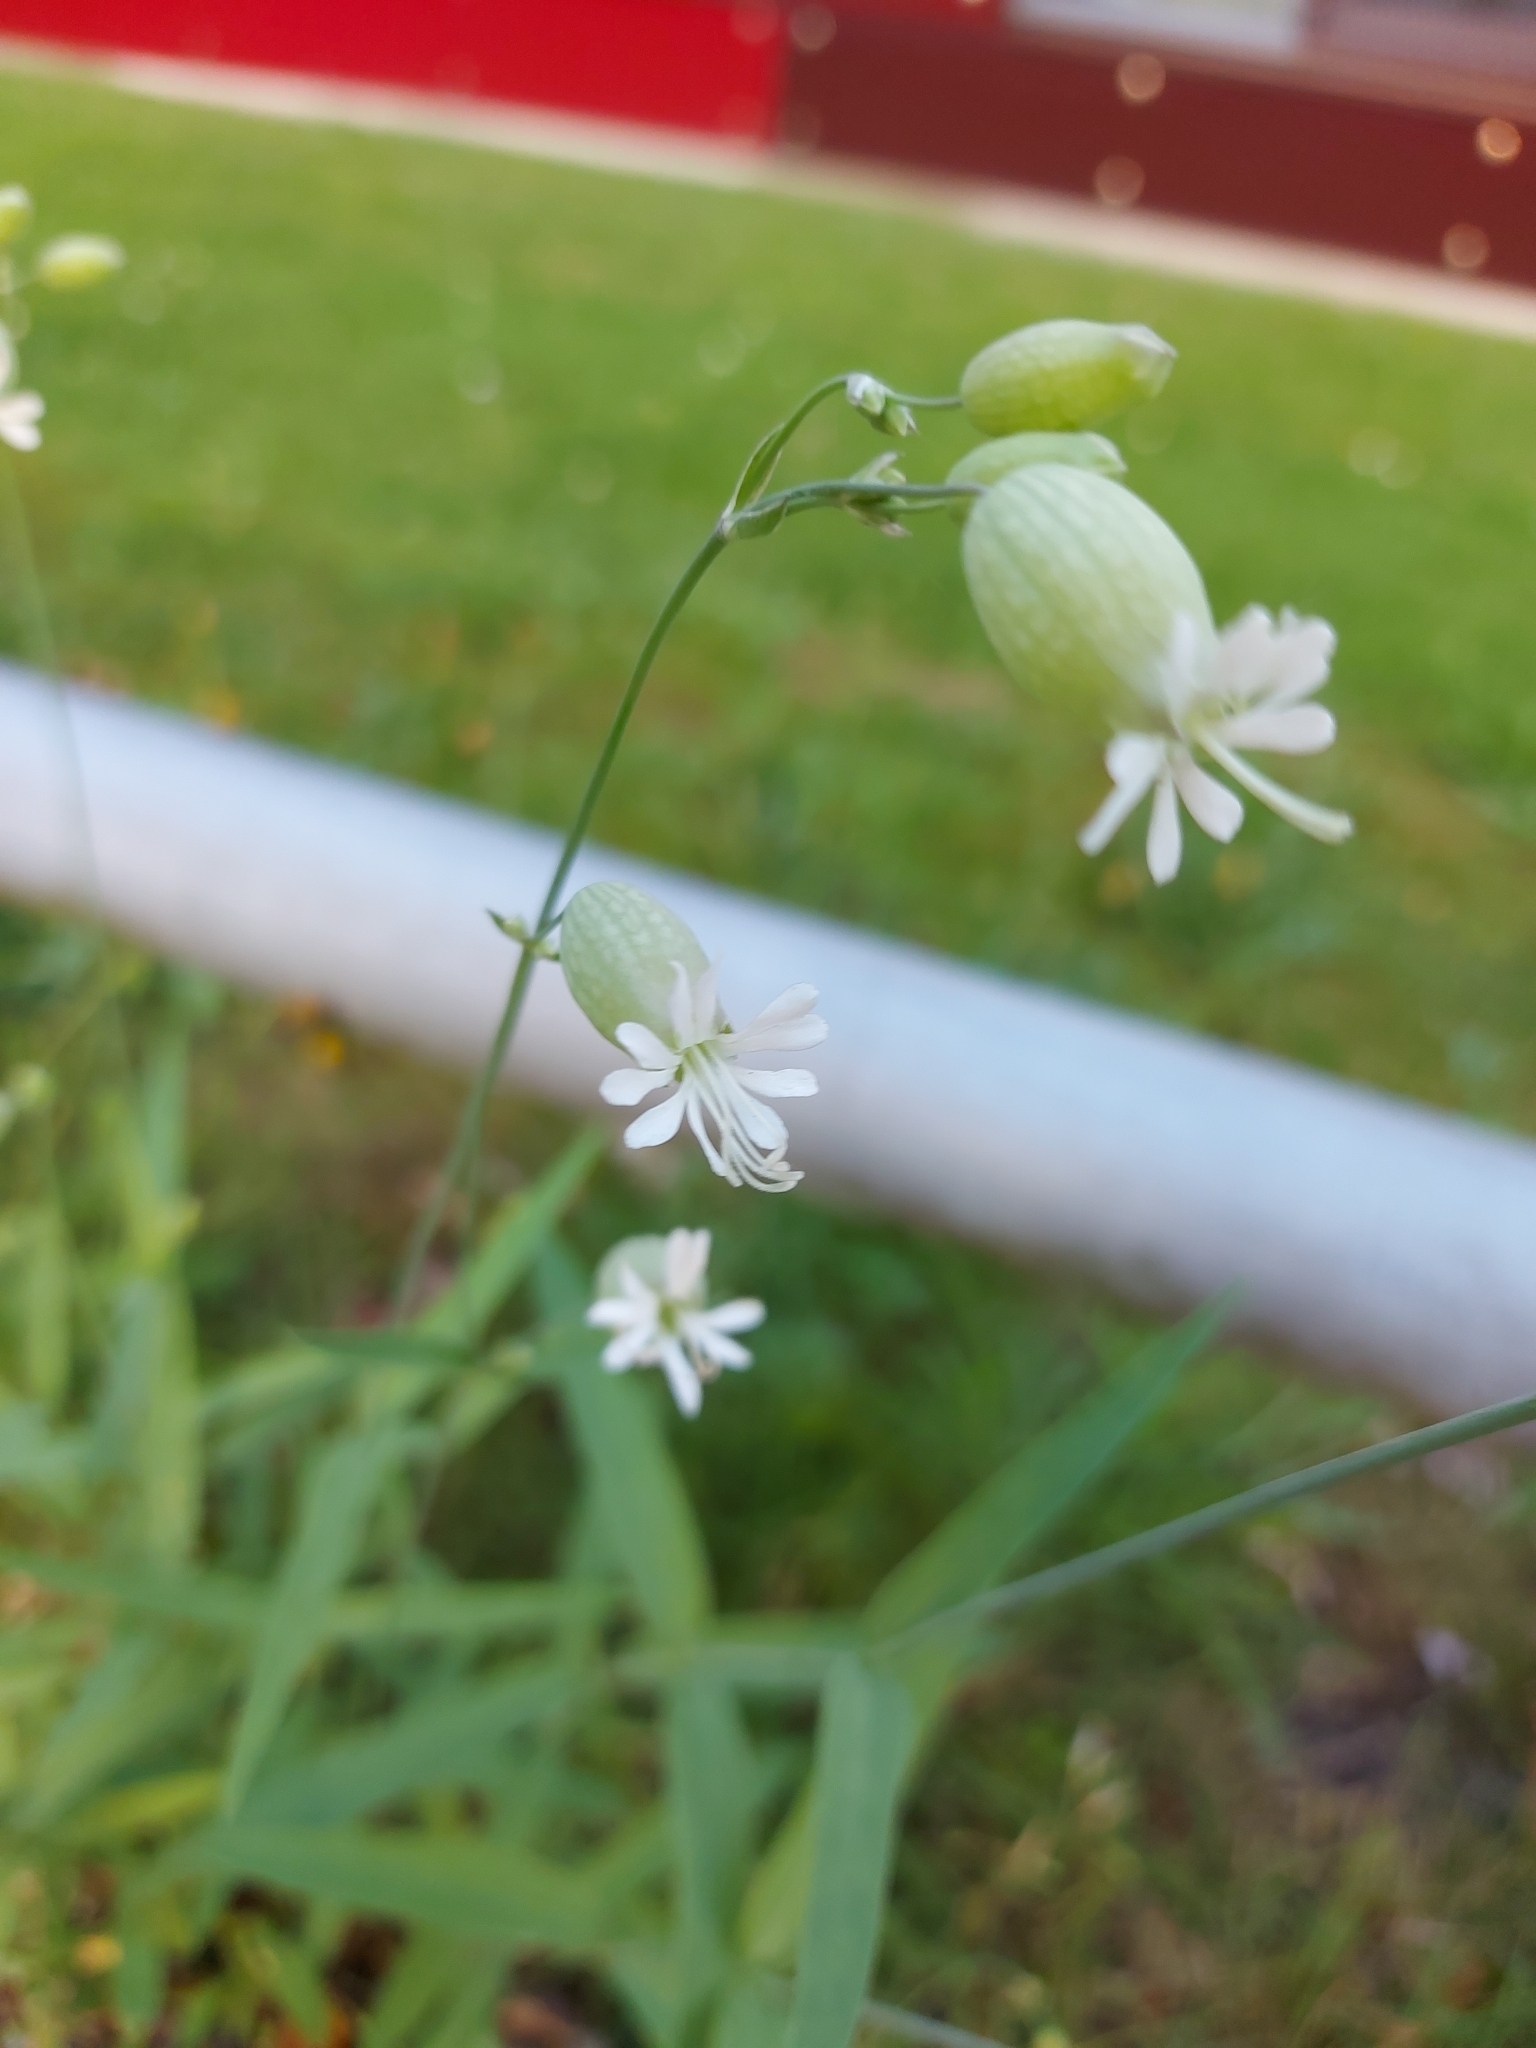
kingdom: Plantae
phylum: Tracheophyta
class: Magnoliopsida
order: Caryophyllales
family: Caryophyllaceae
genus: Silene
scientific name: Silene vulgaris
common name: Bladder campion
